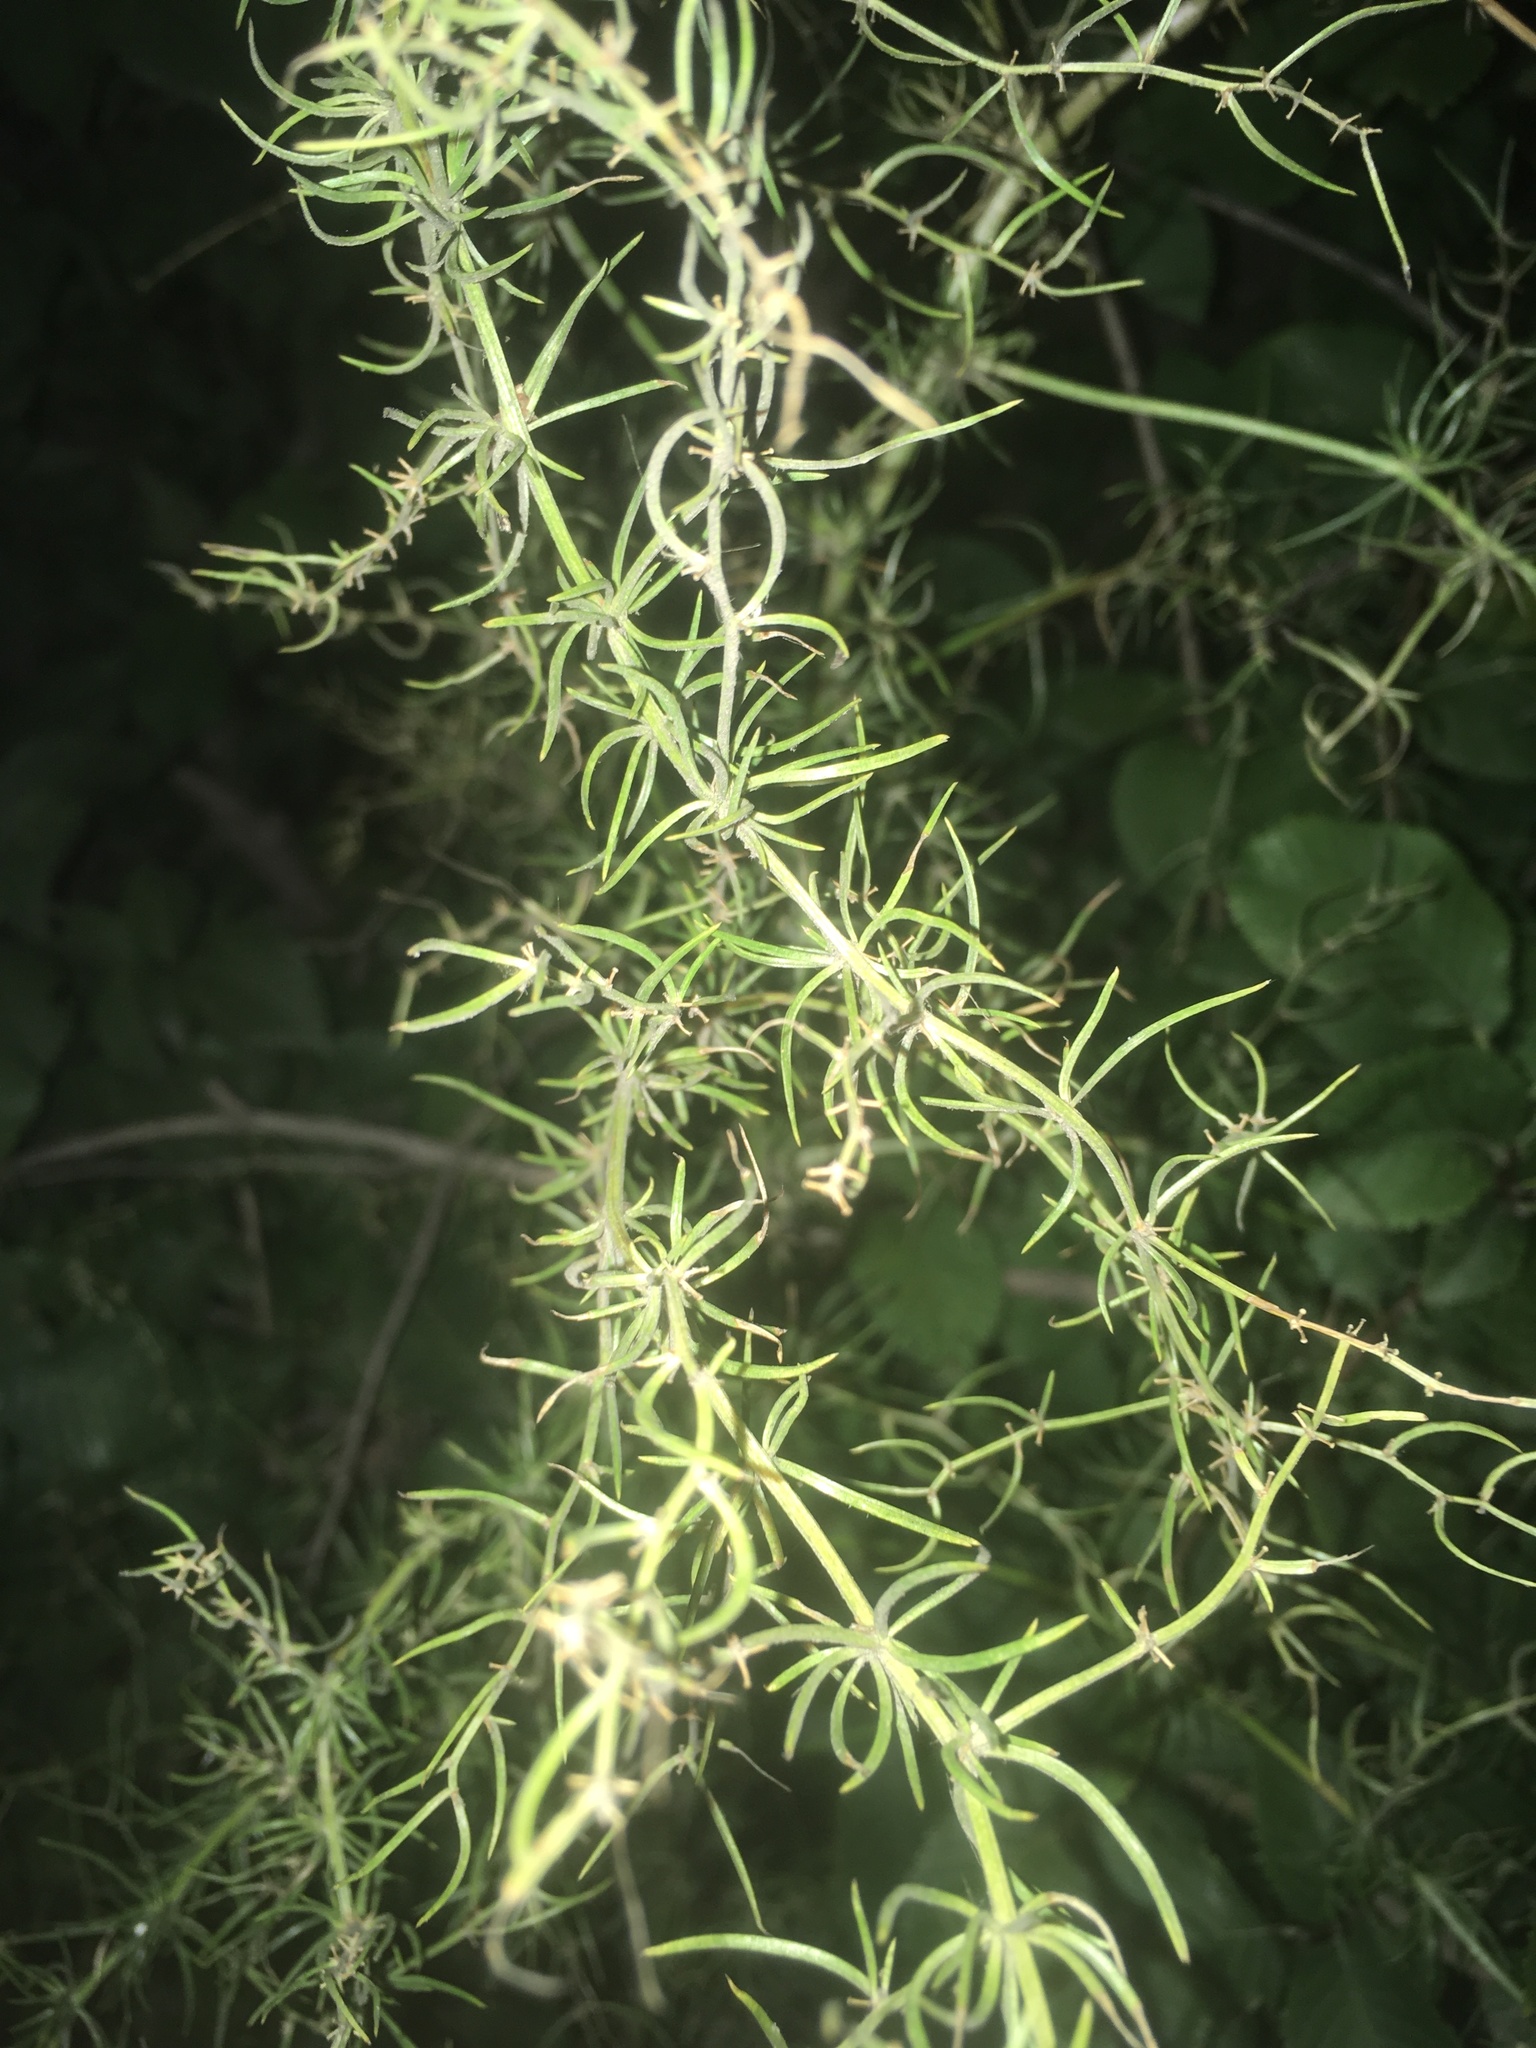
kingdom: Plantae
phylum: Tracheophyta
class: Liliopsida
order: Asparagales
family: Asparagaceae
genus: Asparagus
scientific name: Asparagus verticillatus
